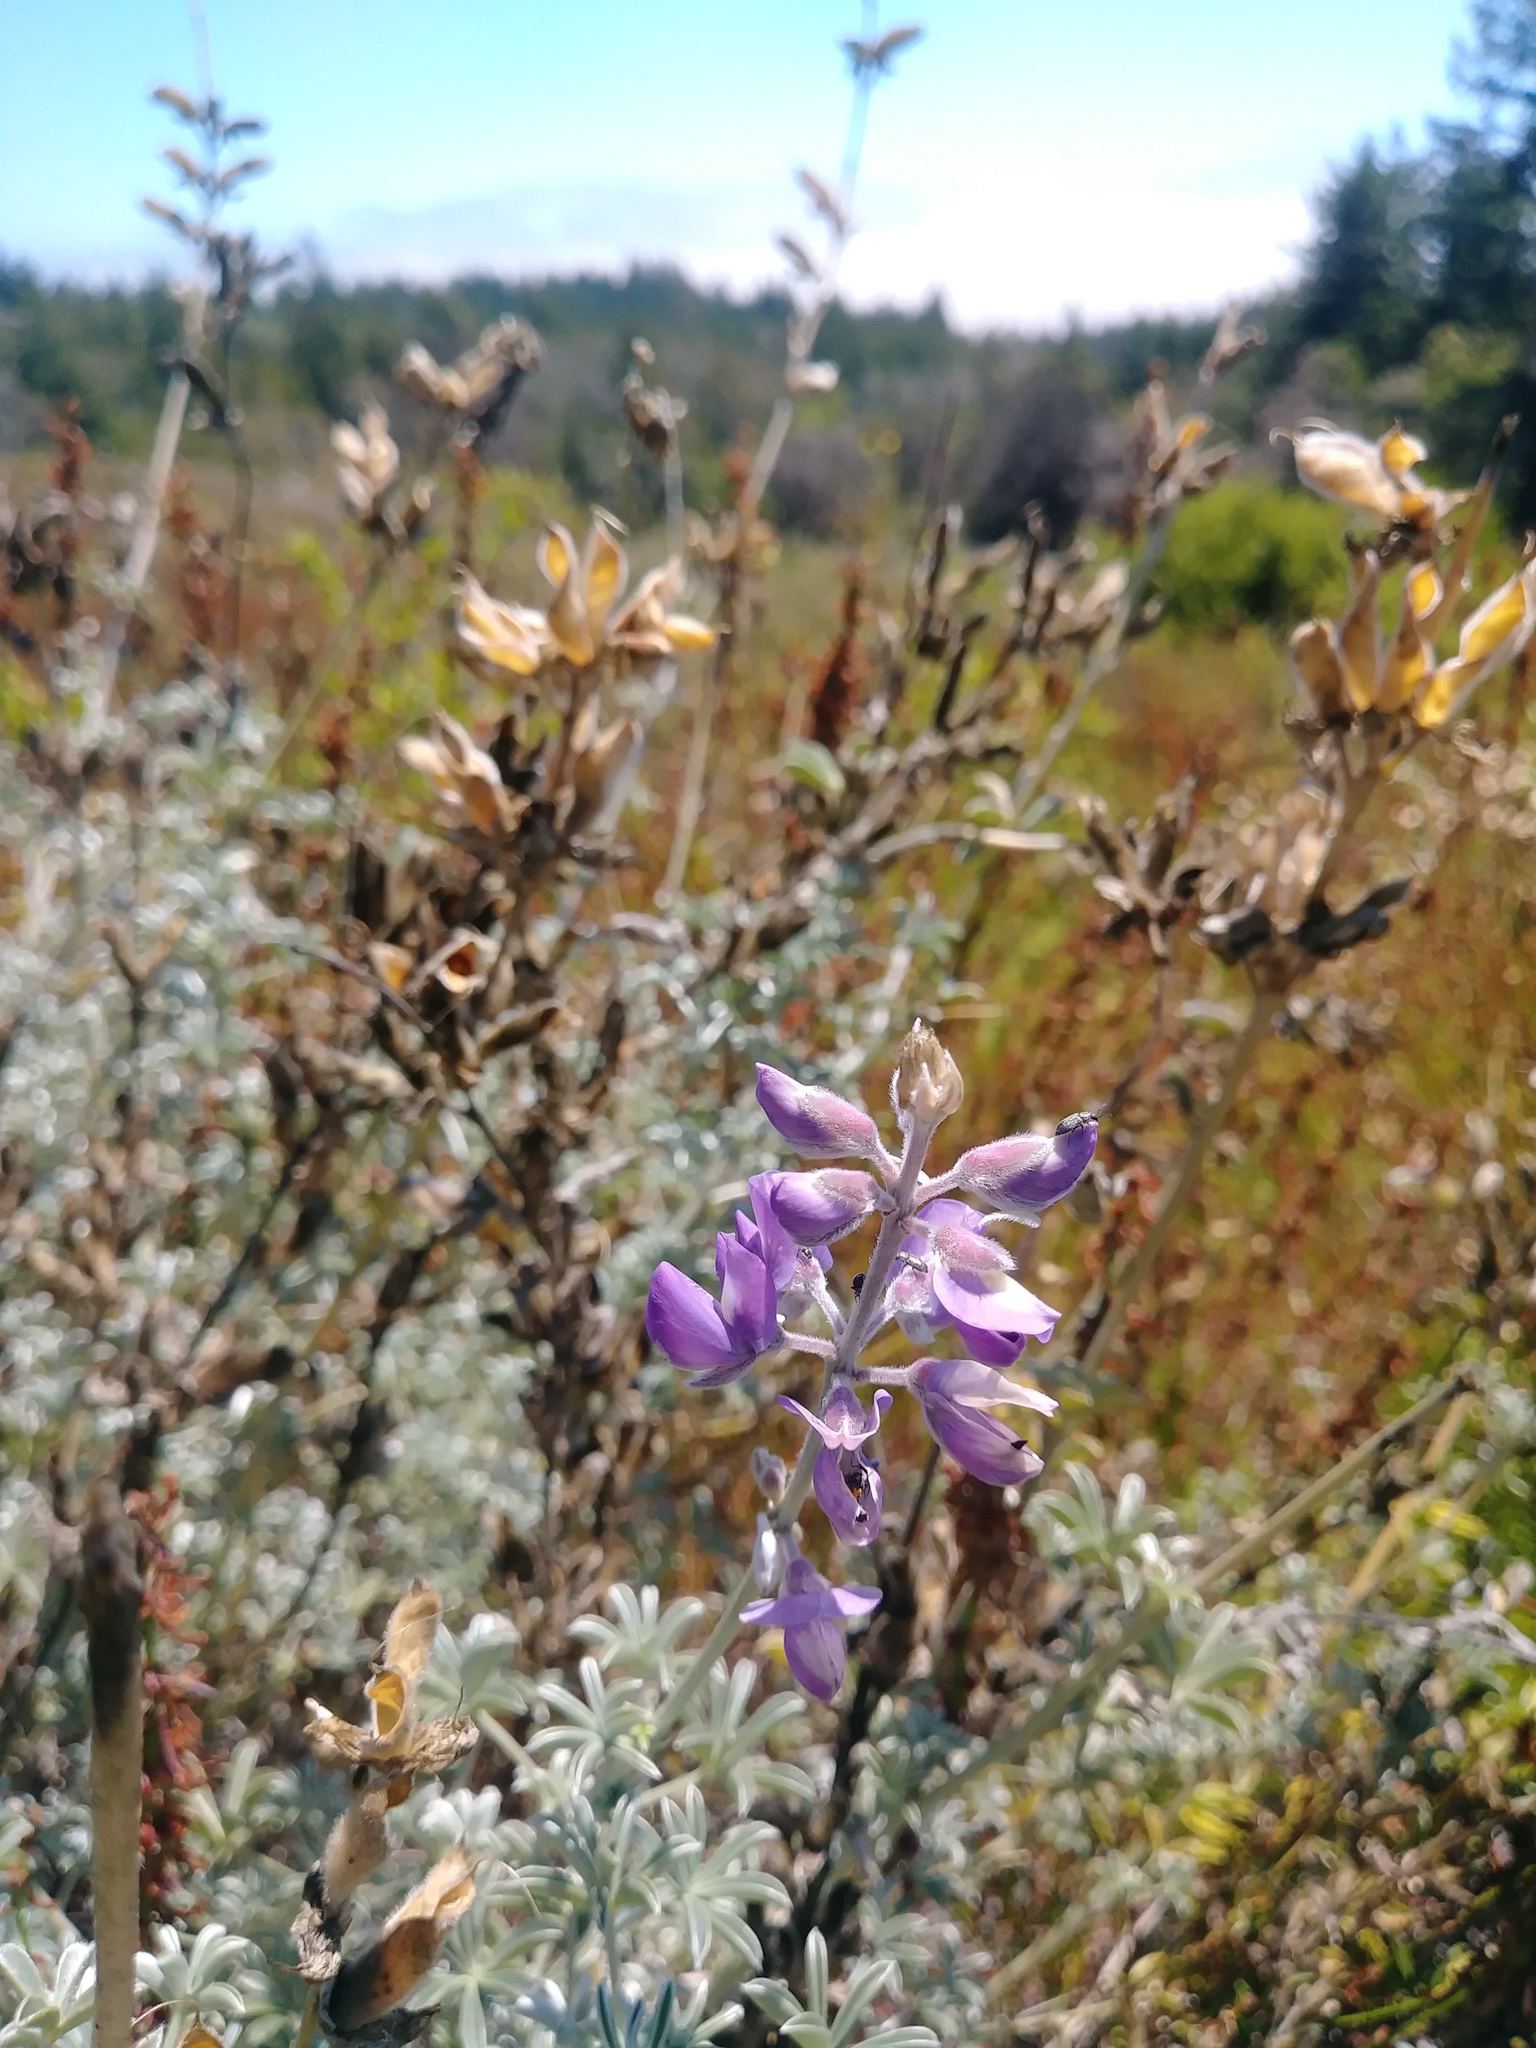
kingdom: Plantae
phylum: Tracheophyta
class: Magnoliopsida
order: Fabales
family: Fabaceae
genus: Lupinus
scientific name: Lupinus albifrons
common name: Foothill lupine
